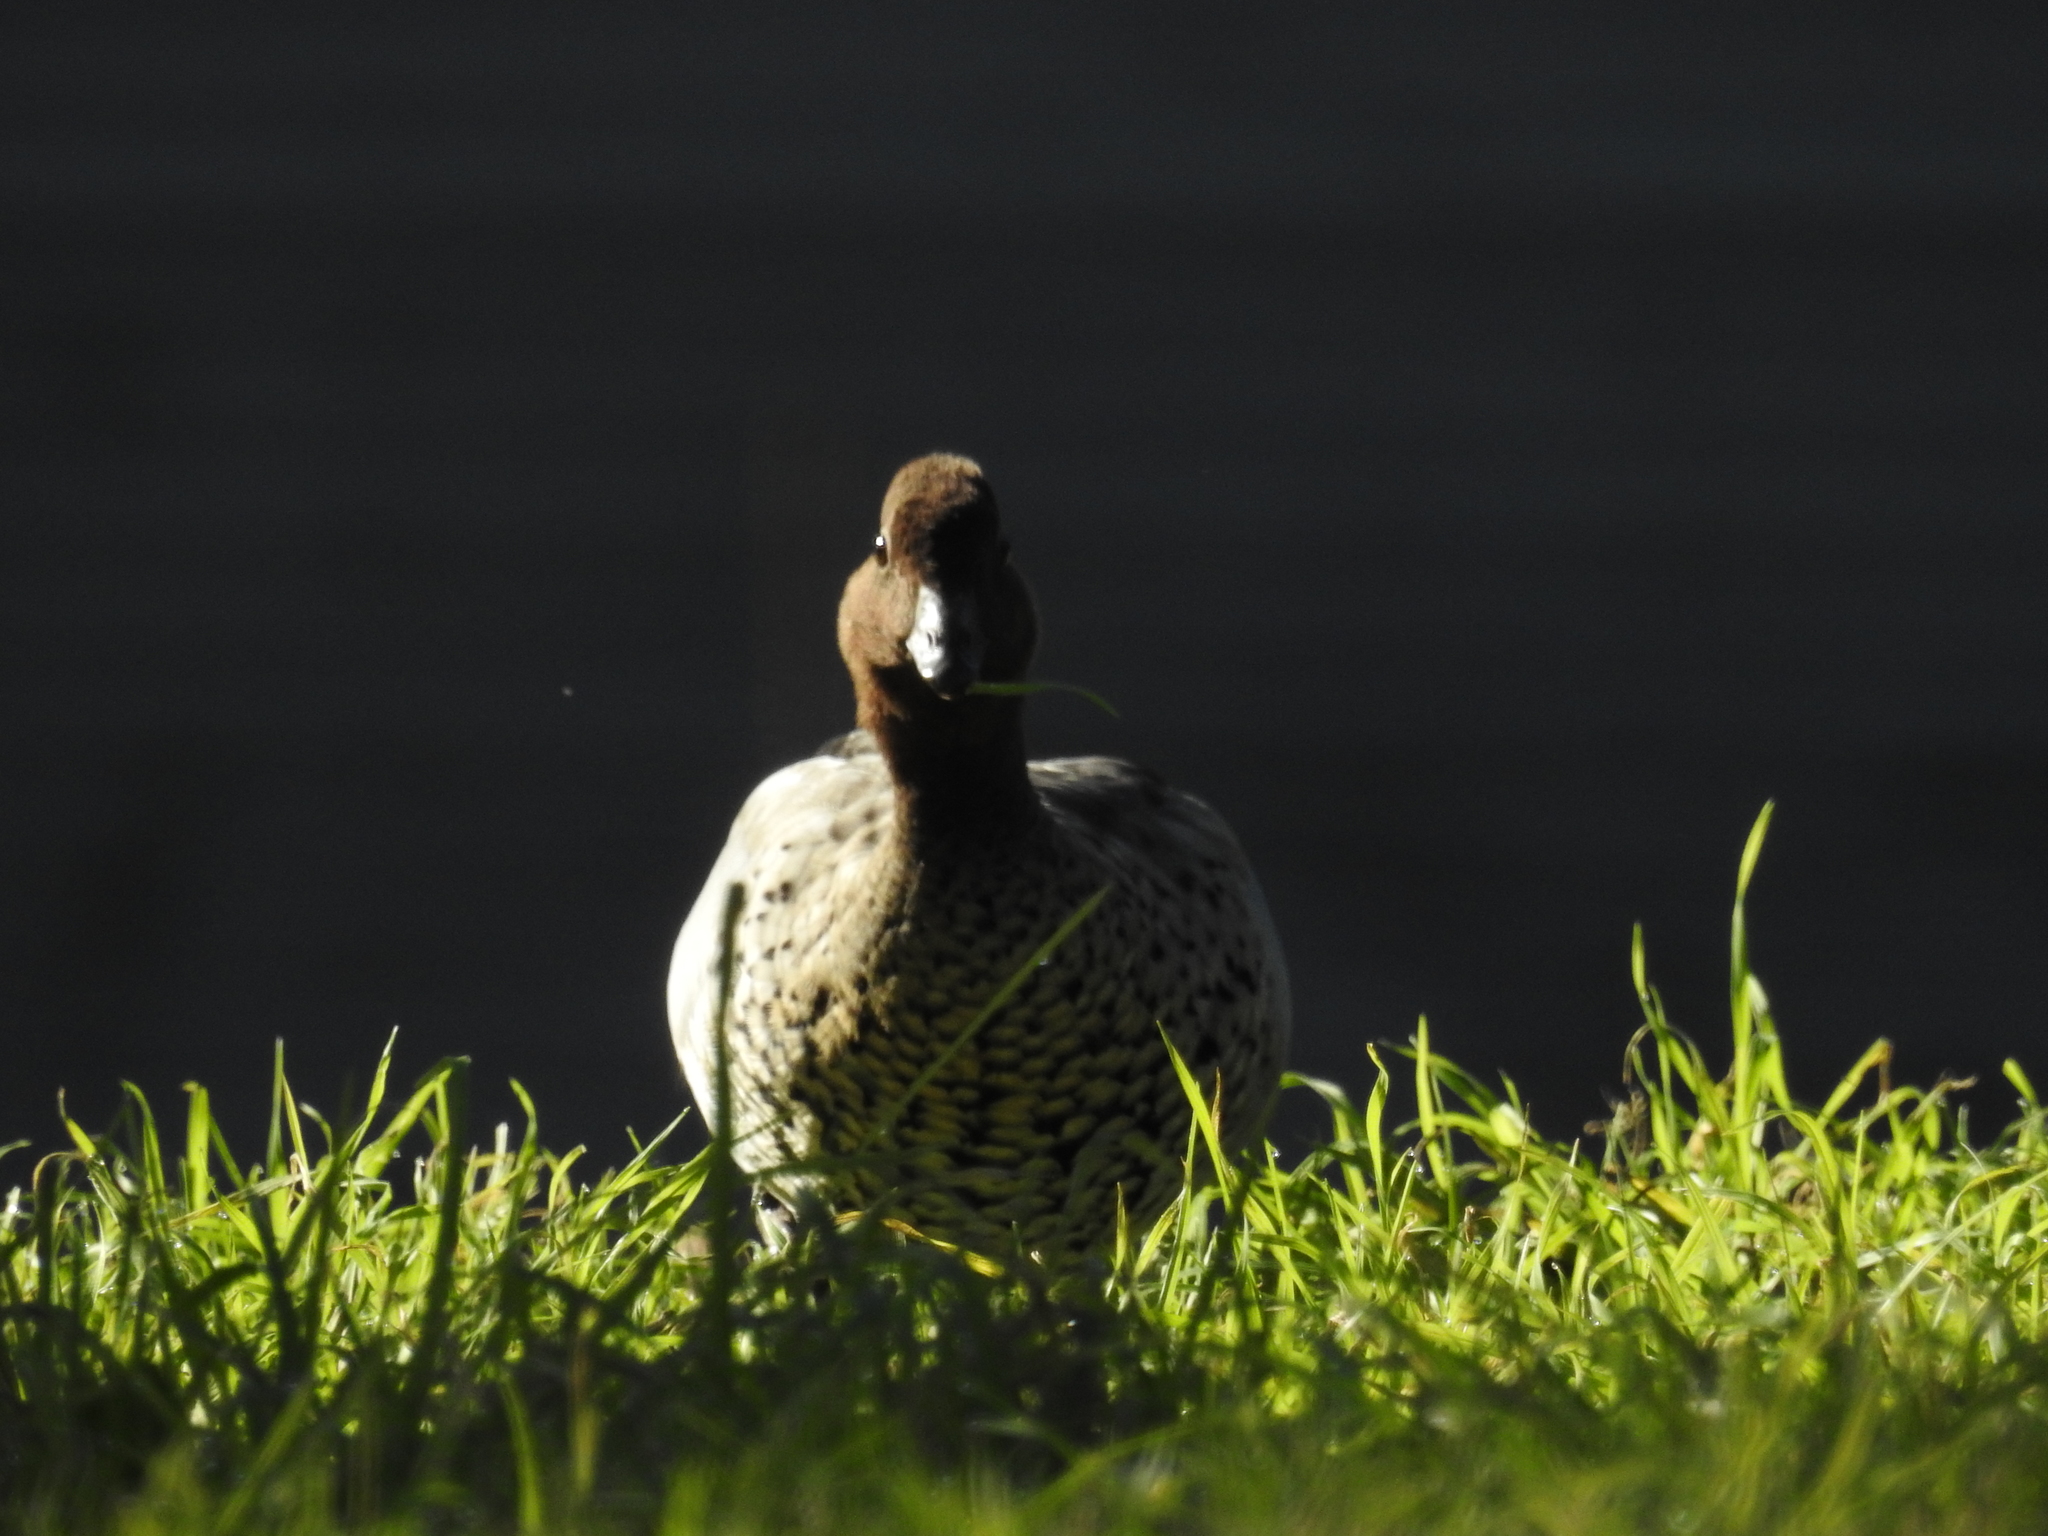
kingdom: Animalia
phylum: Chordata
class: Aves
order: Anseriformes
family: Anatidae
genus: Chenonetta
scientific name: Chenonetta jubata
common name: Maned duck
